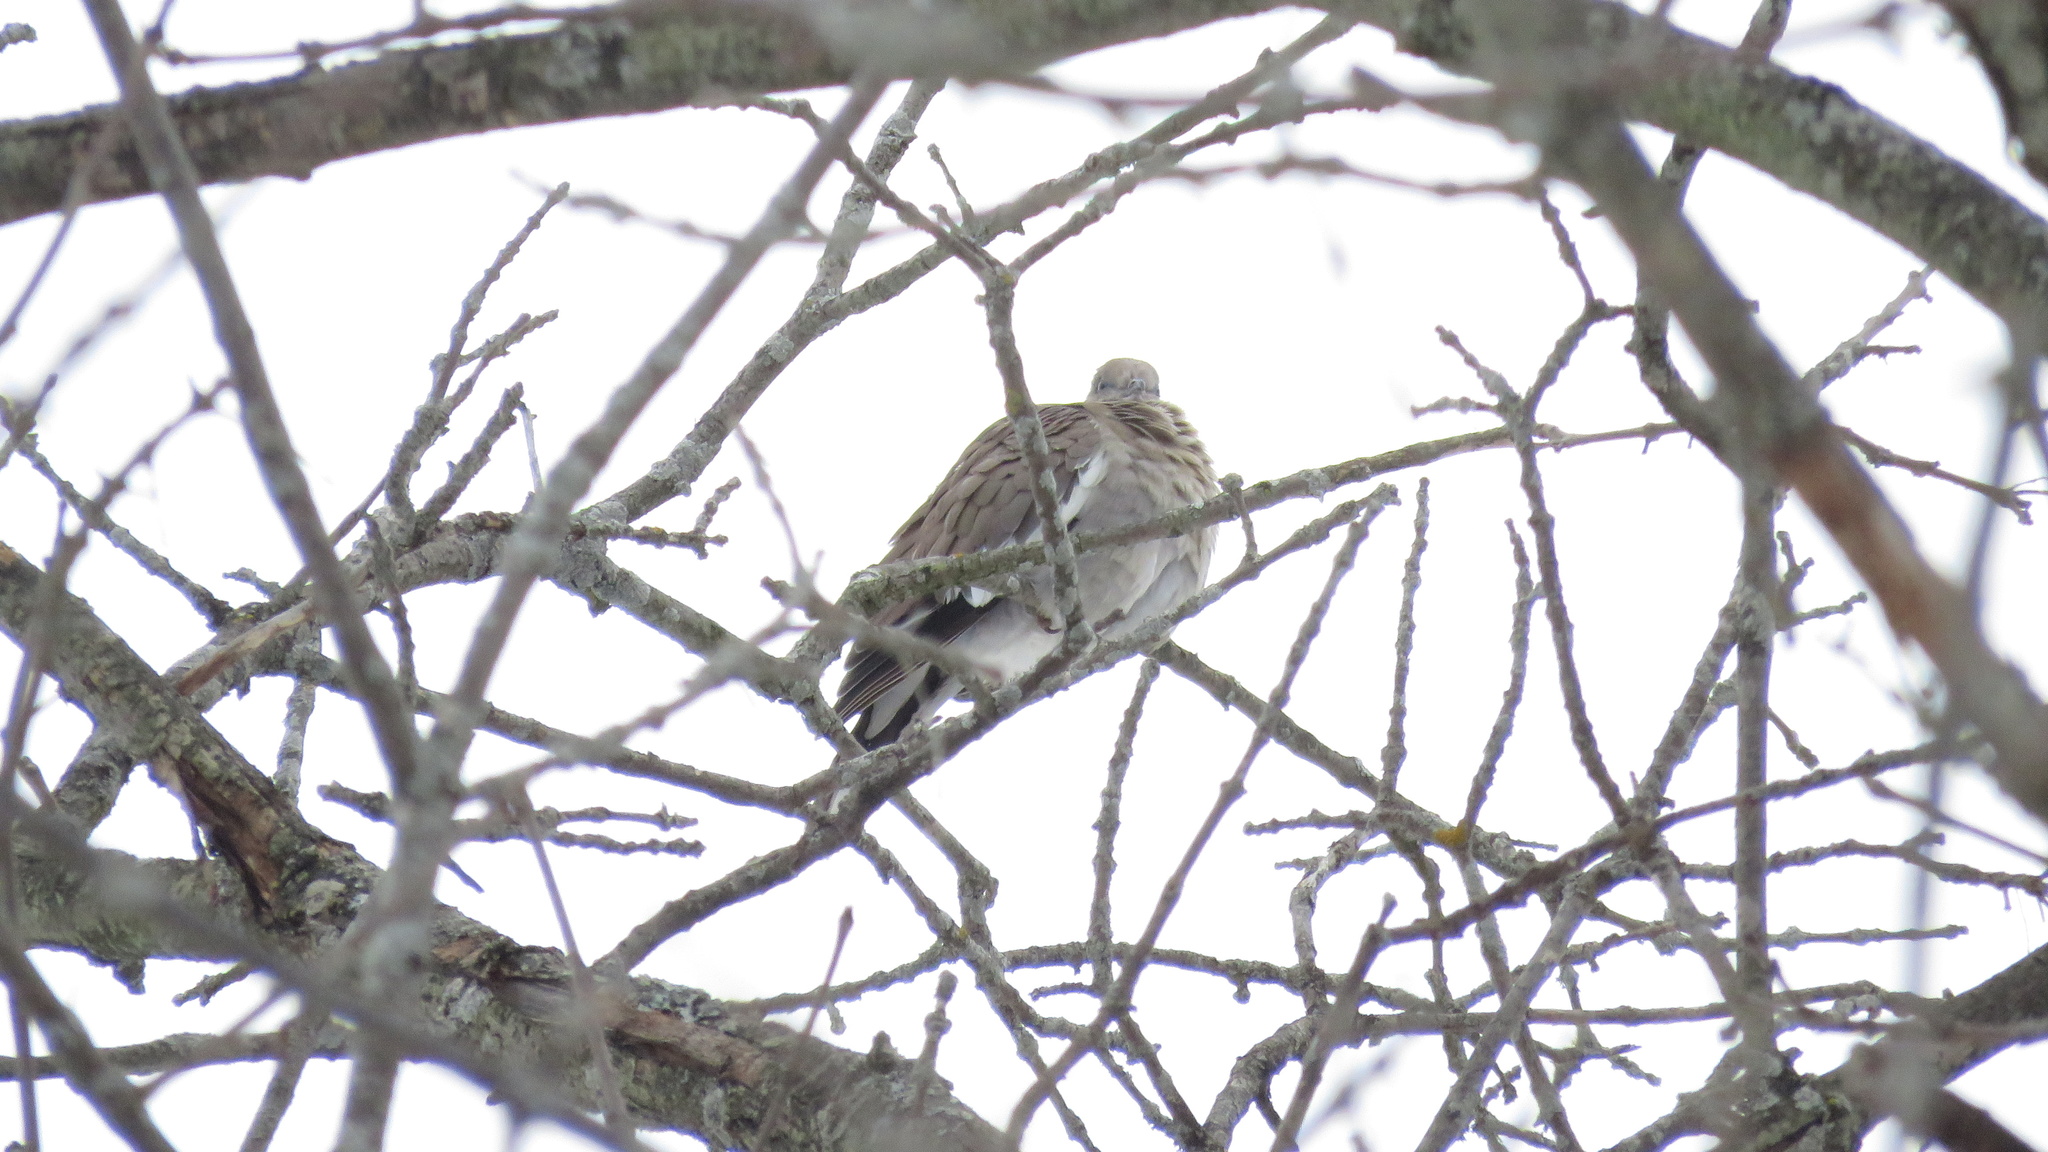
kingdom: Animalia
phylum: Chordata
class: Aves
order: Columbiformes
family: Columbidae
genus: Zenaida
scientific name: Zenaida asiatica
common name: White-winged dove
